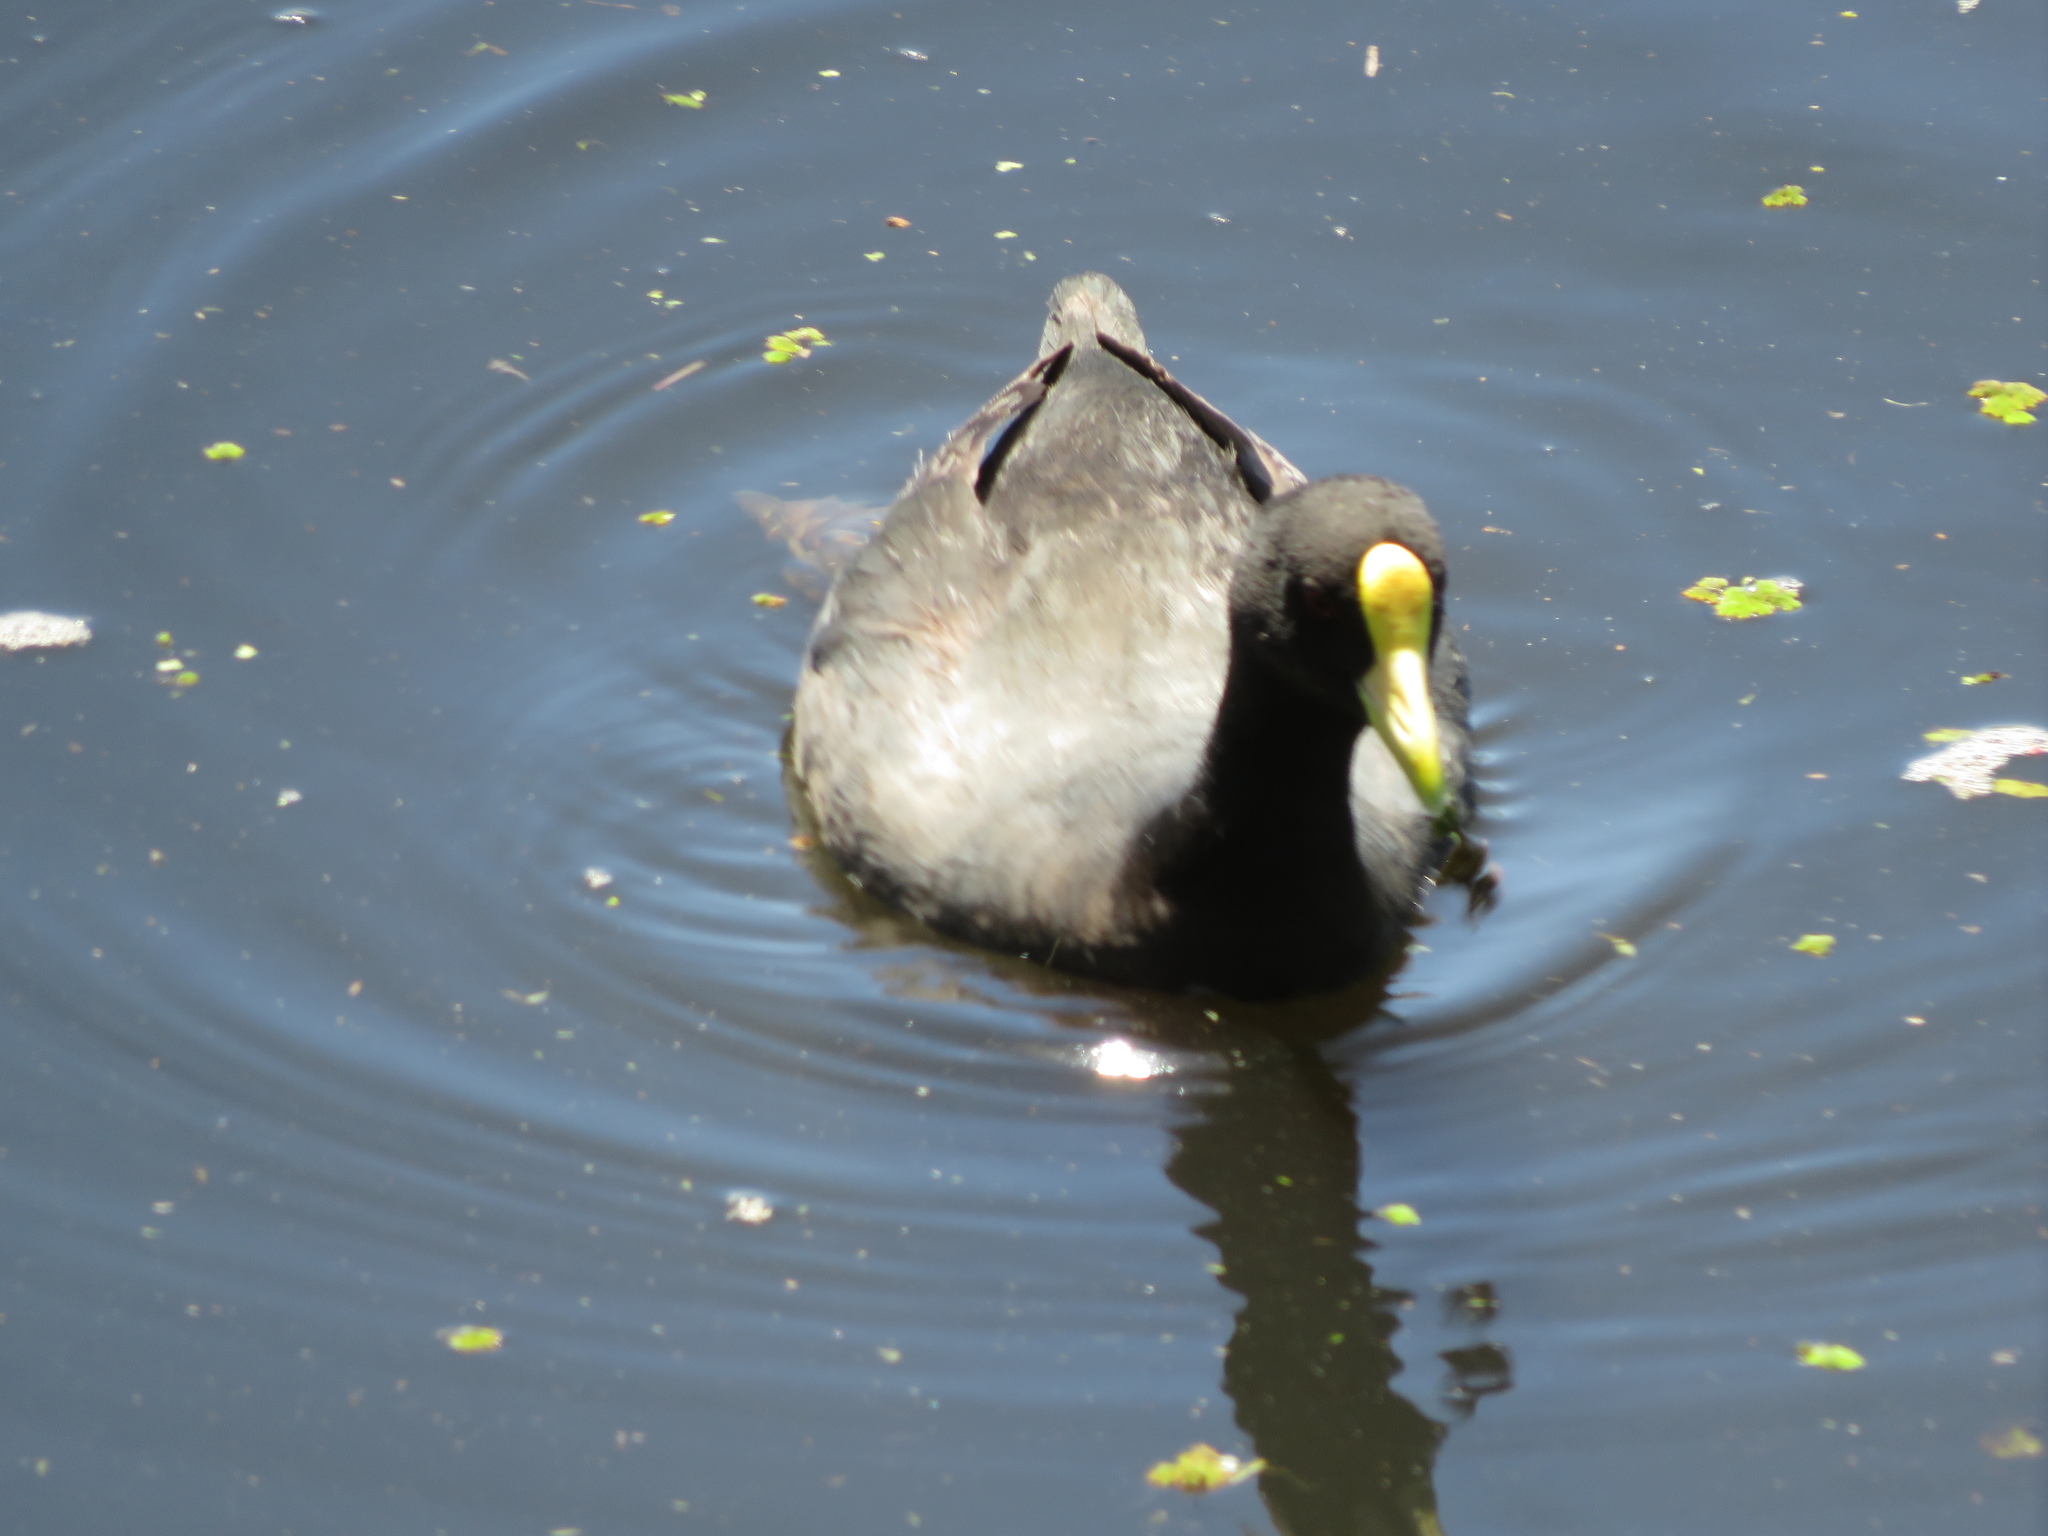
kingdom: Animalia
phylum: Chordata
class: Aves
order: Gruiformes
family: Rallidae
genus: Fulica
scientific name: Fulica leucoptera
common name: White-winged coot
